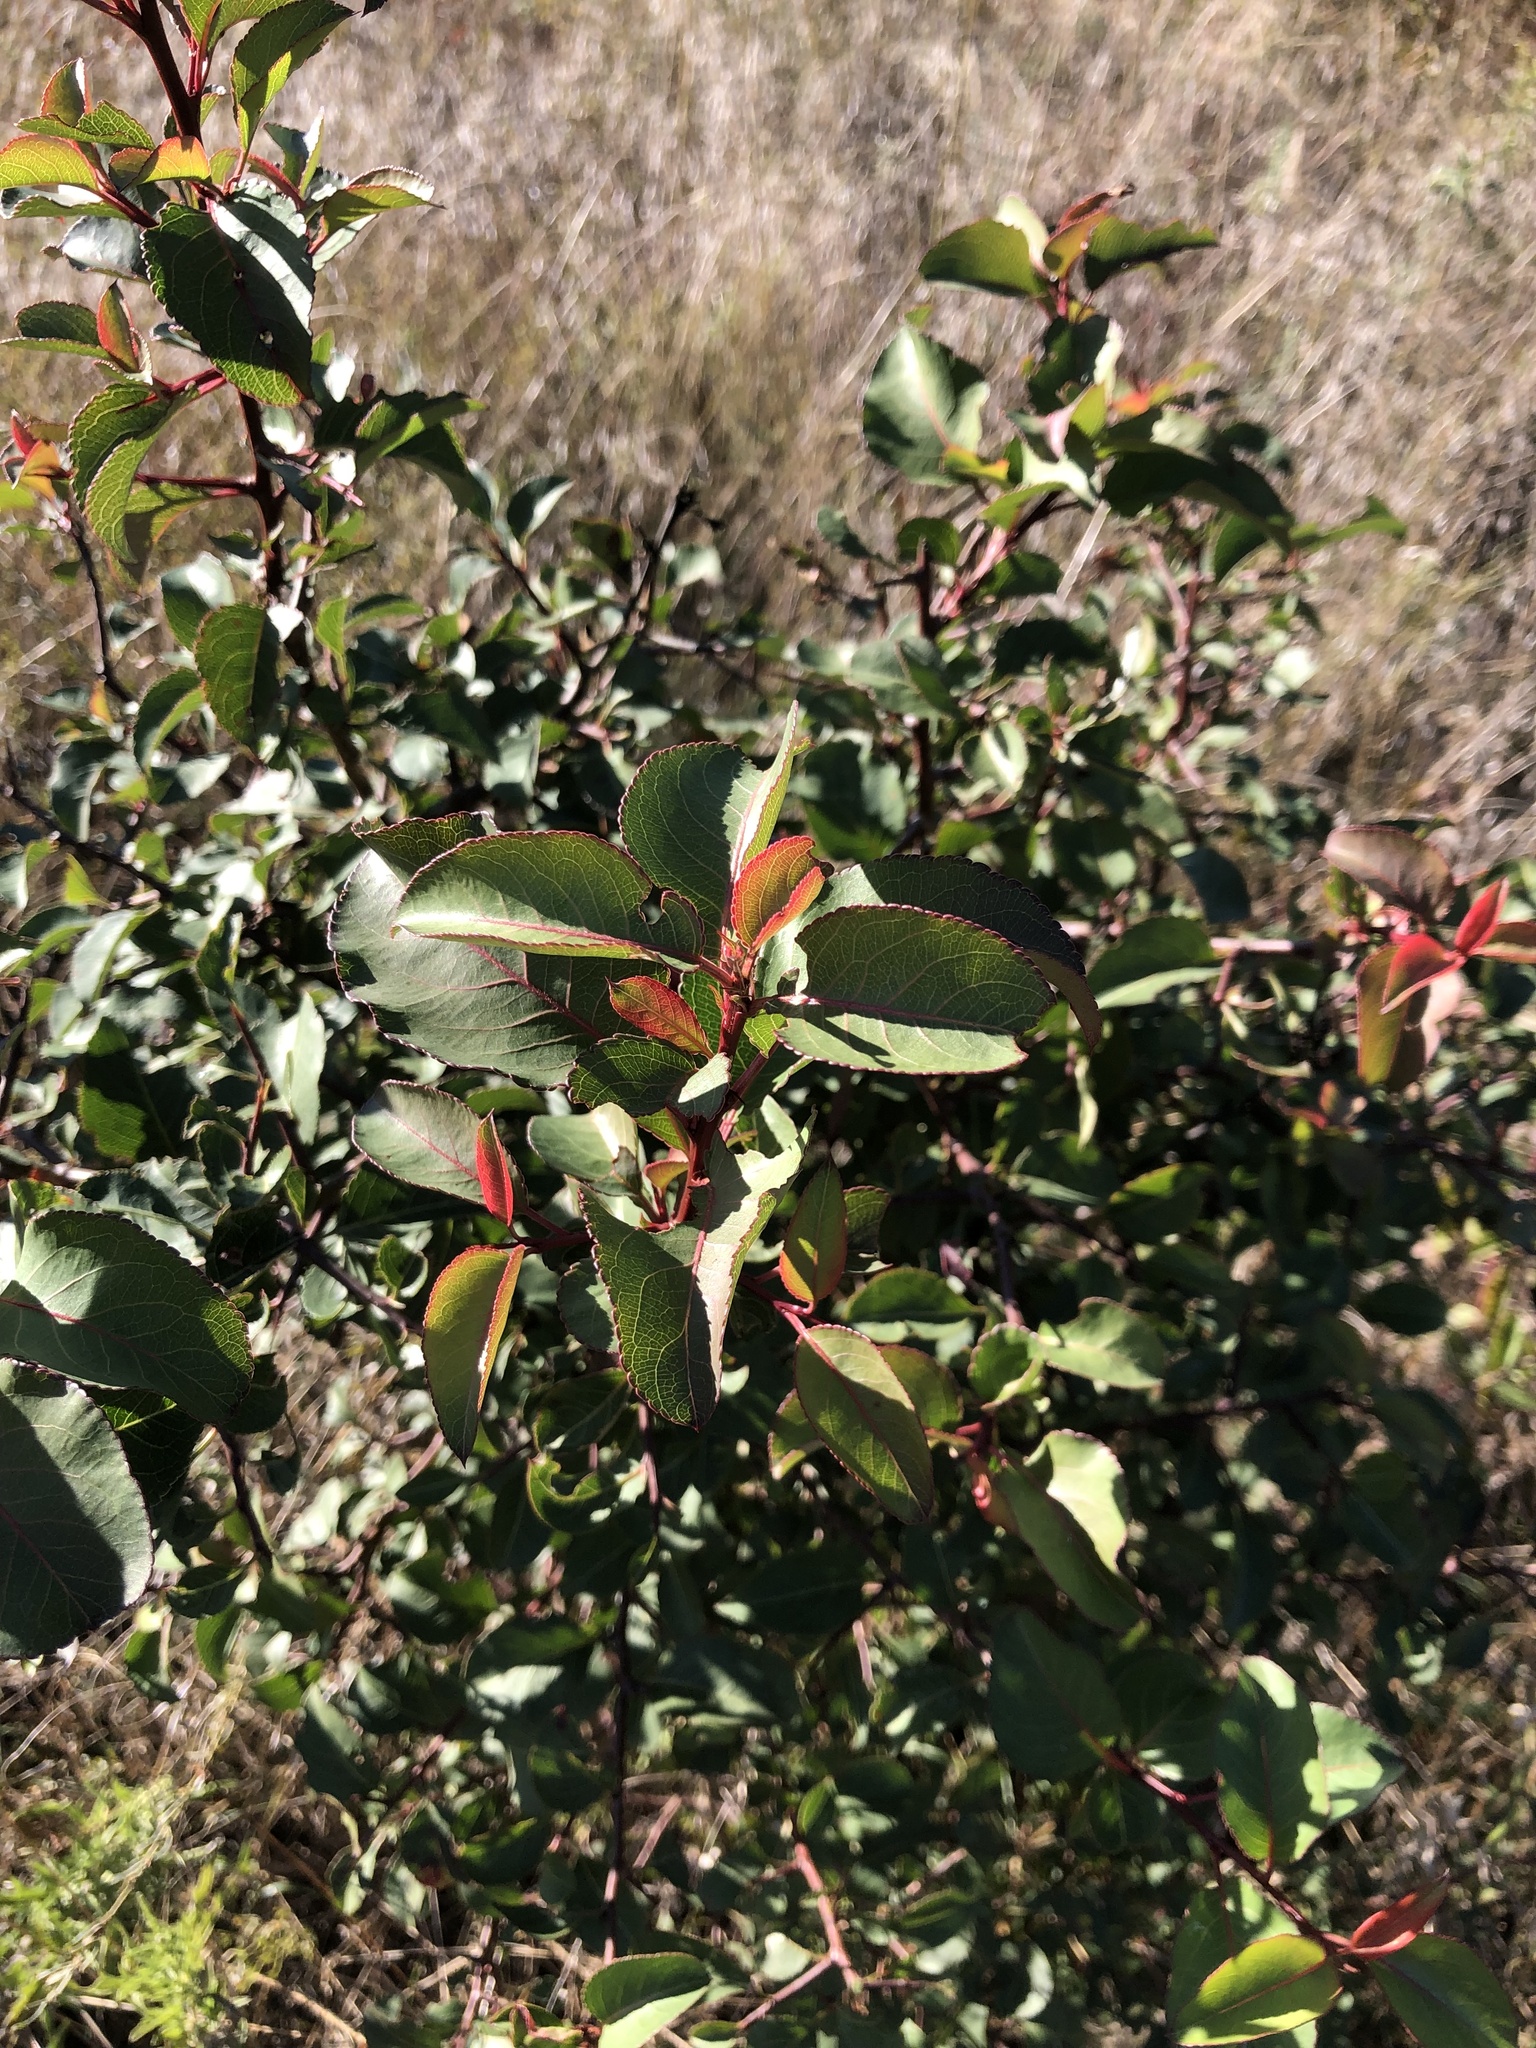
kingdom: Plantae
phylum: Tracheophyta
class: Magnoliopsida
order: Rosales
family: Rosaceae
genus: Pyrus
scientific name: Pyrus calleryana
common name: Callery pear
